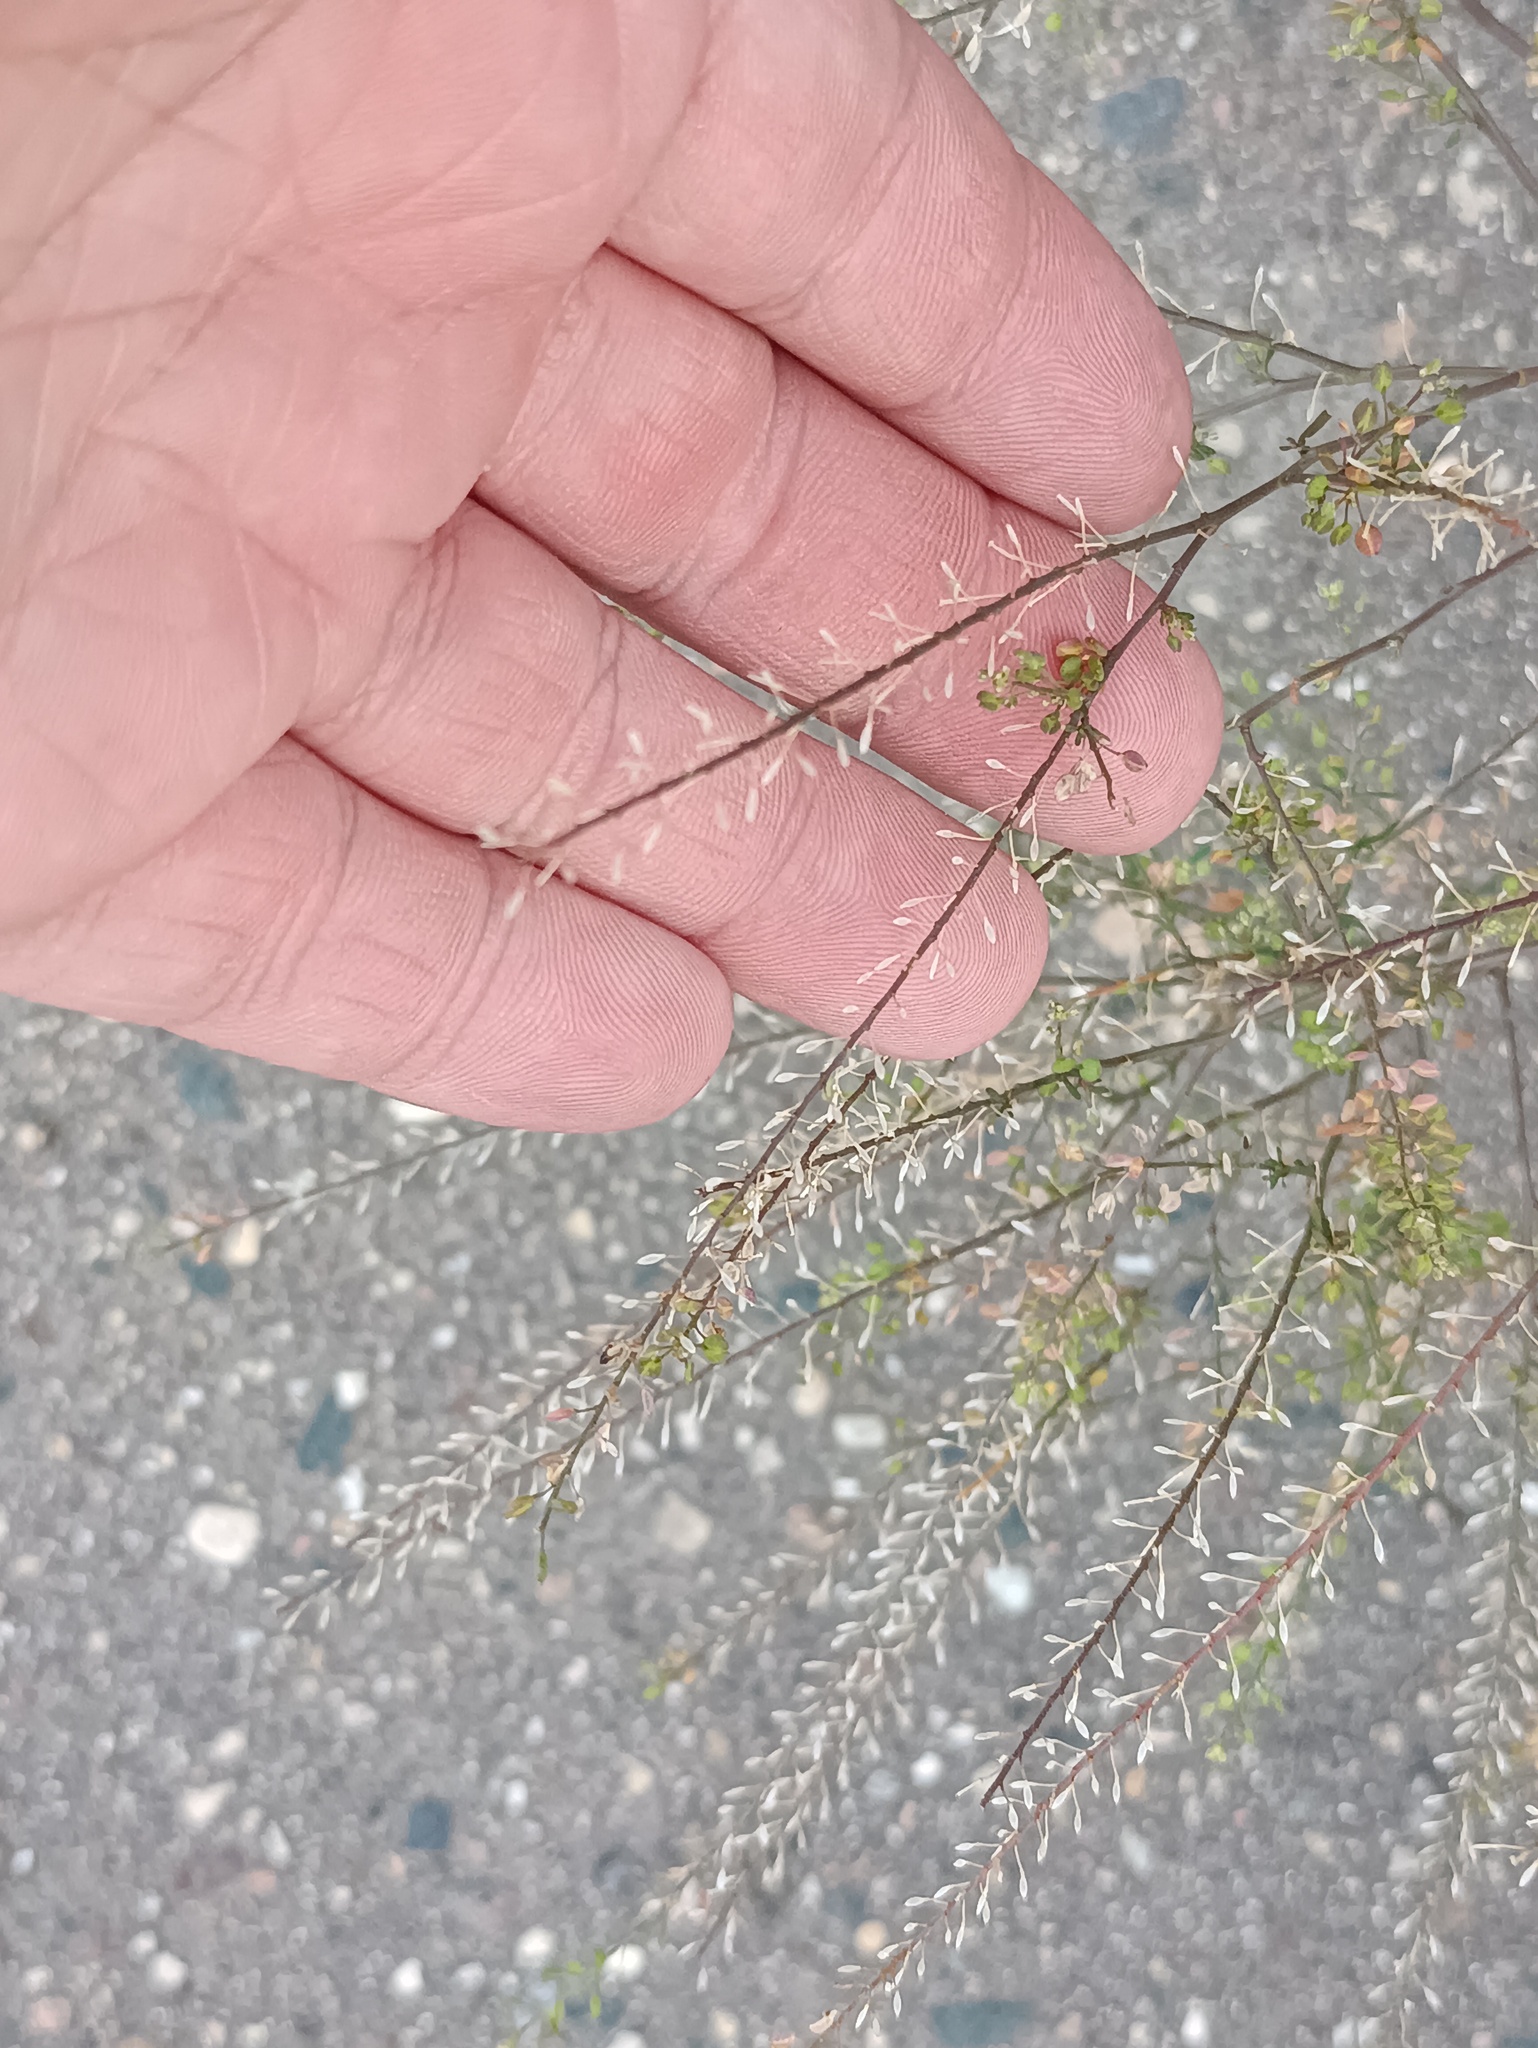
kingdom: Plantae
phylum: Tracheophyta
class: Magnoliopsida
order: Brassicales
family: Brassicaceae
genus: Lepidium
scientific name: Lepidium densiflorum
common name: Miner's pepperwort
